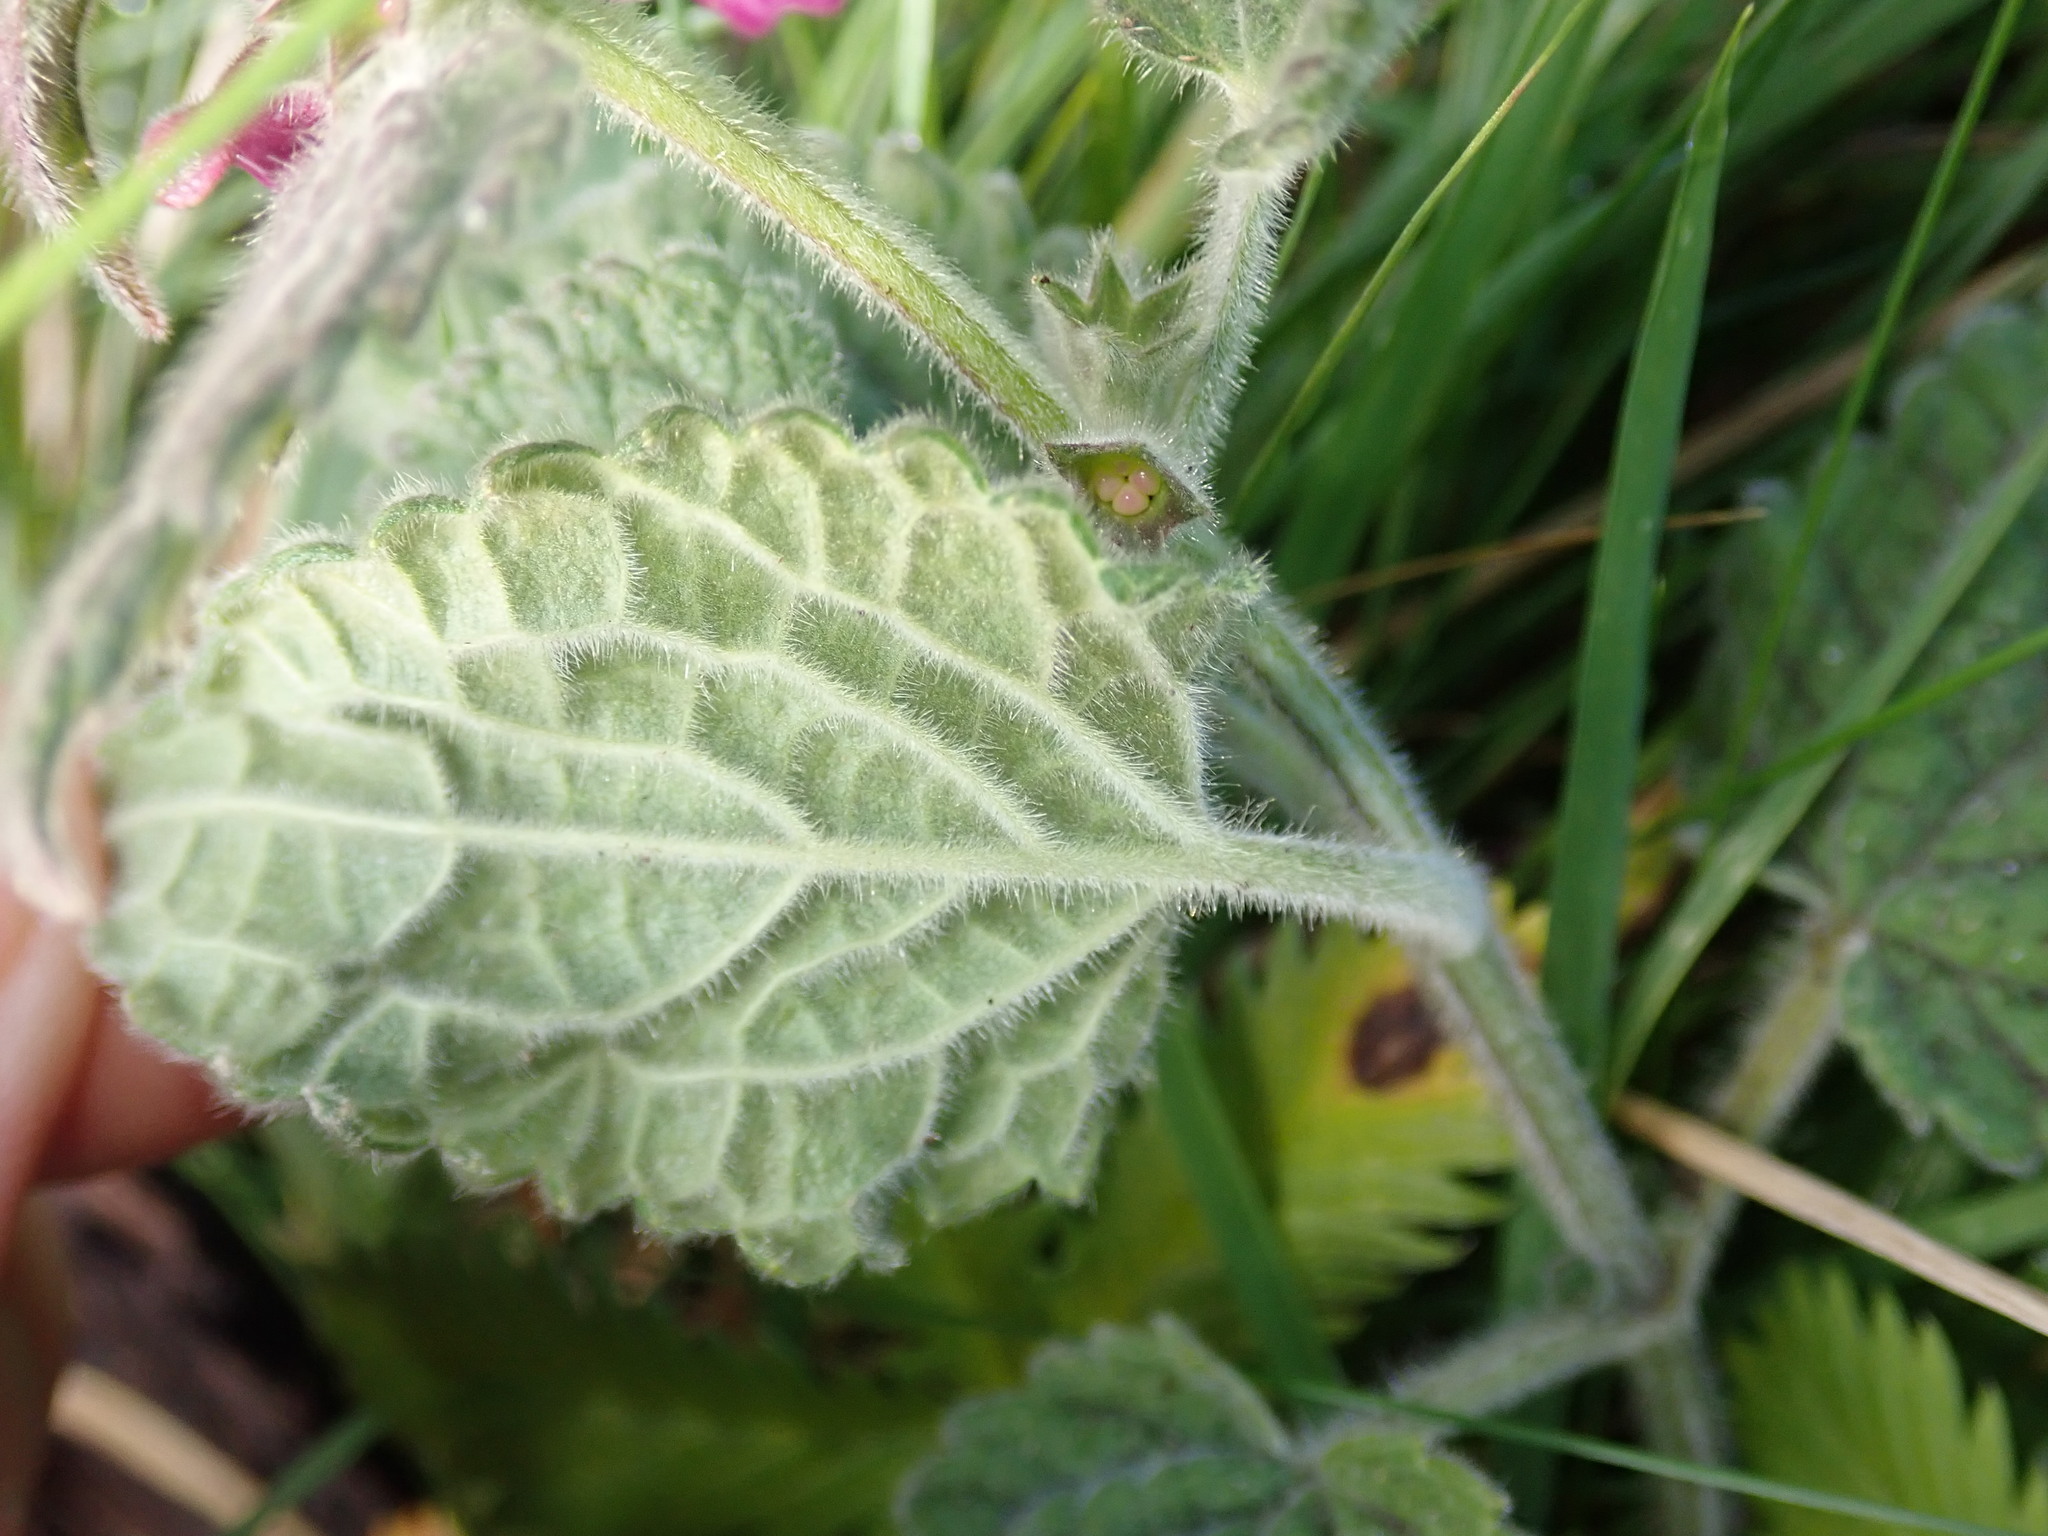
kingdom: Plantae
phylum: Tracheophyta
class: Magnoliopsida
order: Lamiales
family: Lamiaceae
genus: Stachys
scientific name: Stachys sylvatica
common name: Hedge woundwort
